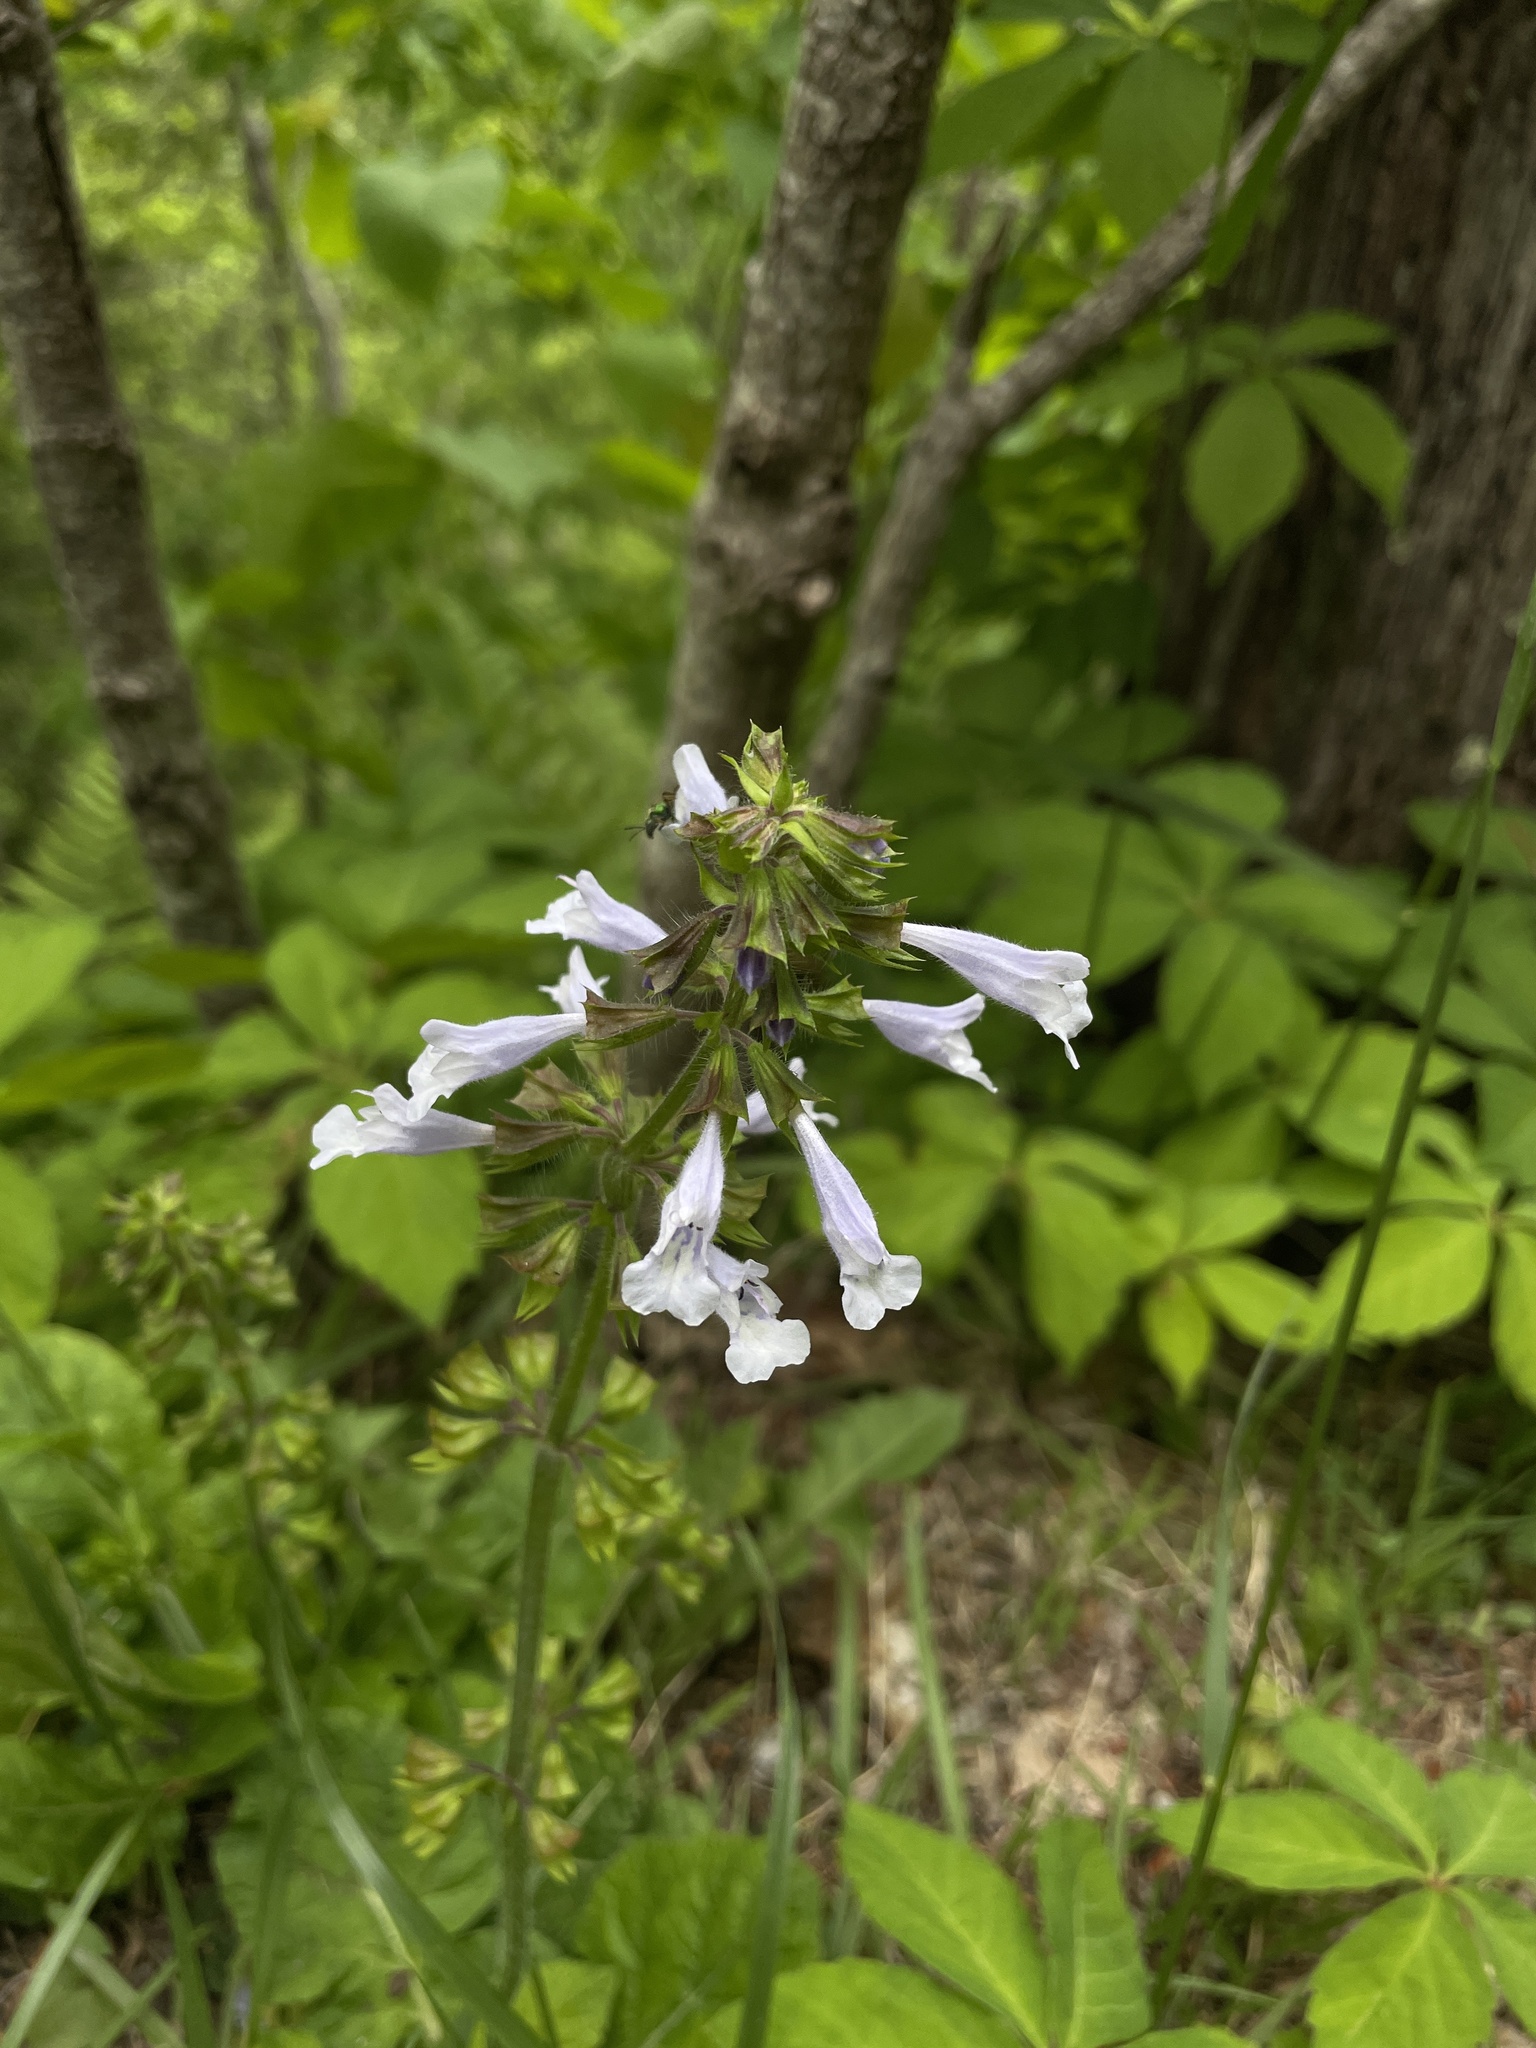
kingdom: Plantae
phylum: Tracheophyta
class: Magnoliopsida
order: Lamiales
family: Lamiaceae
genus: Salvia
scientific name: Salvia lyrata
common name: Cancerweed
